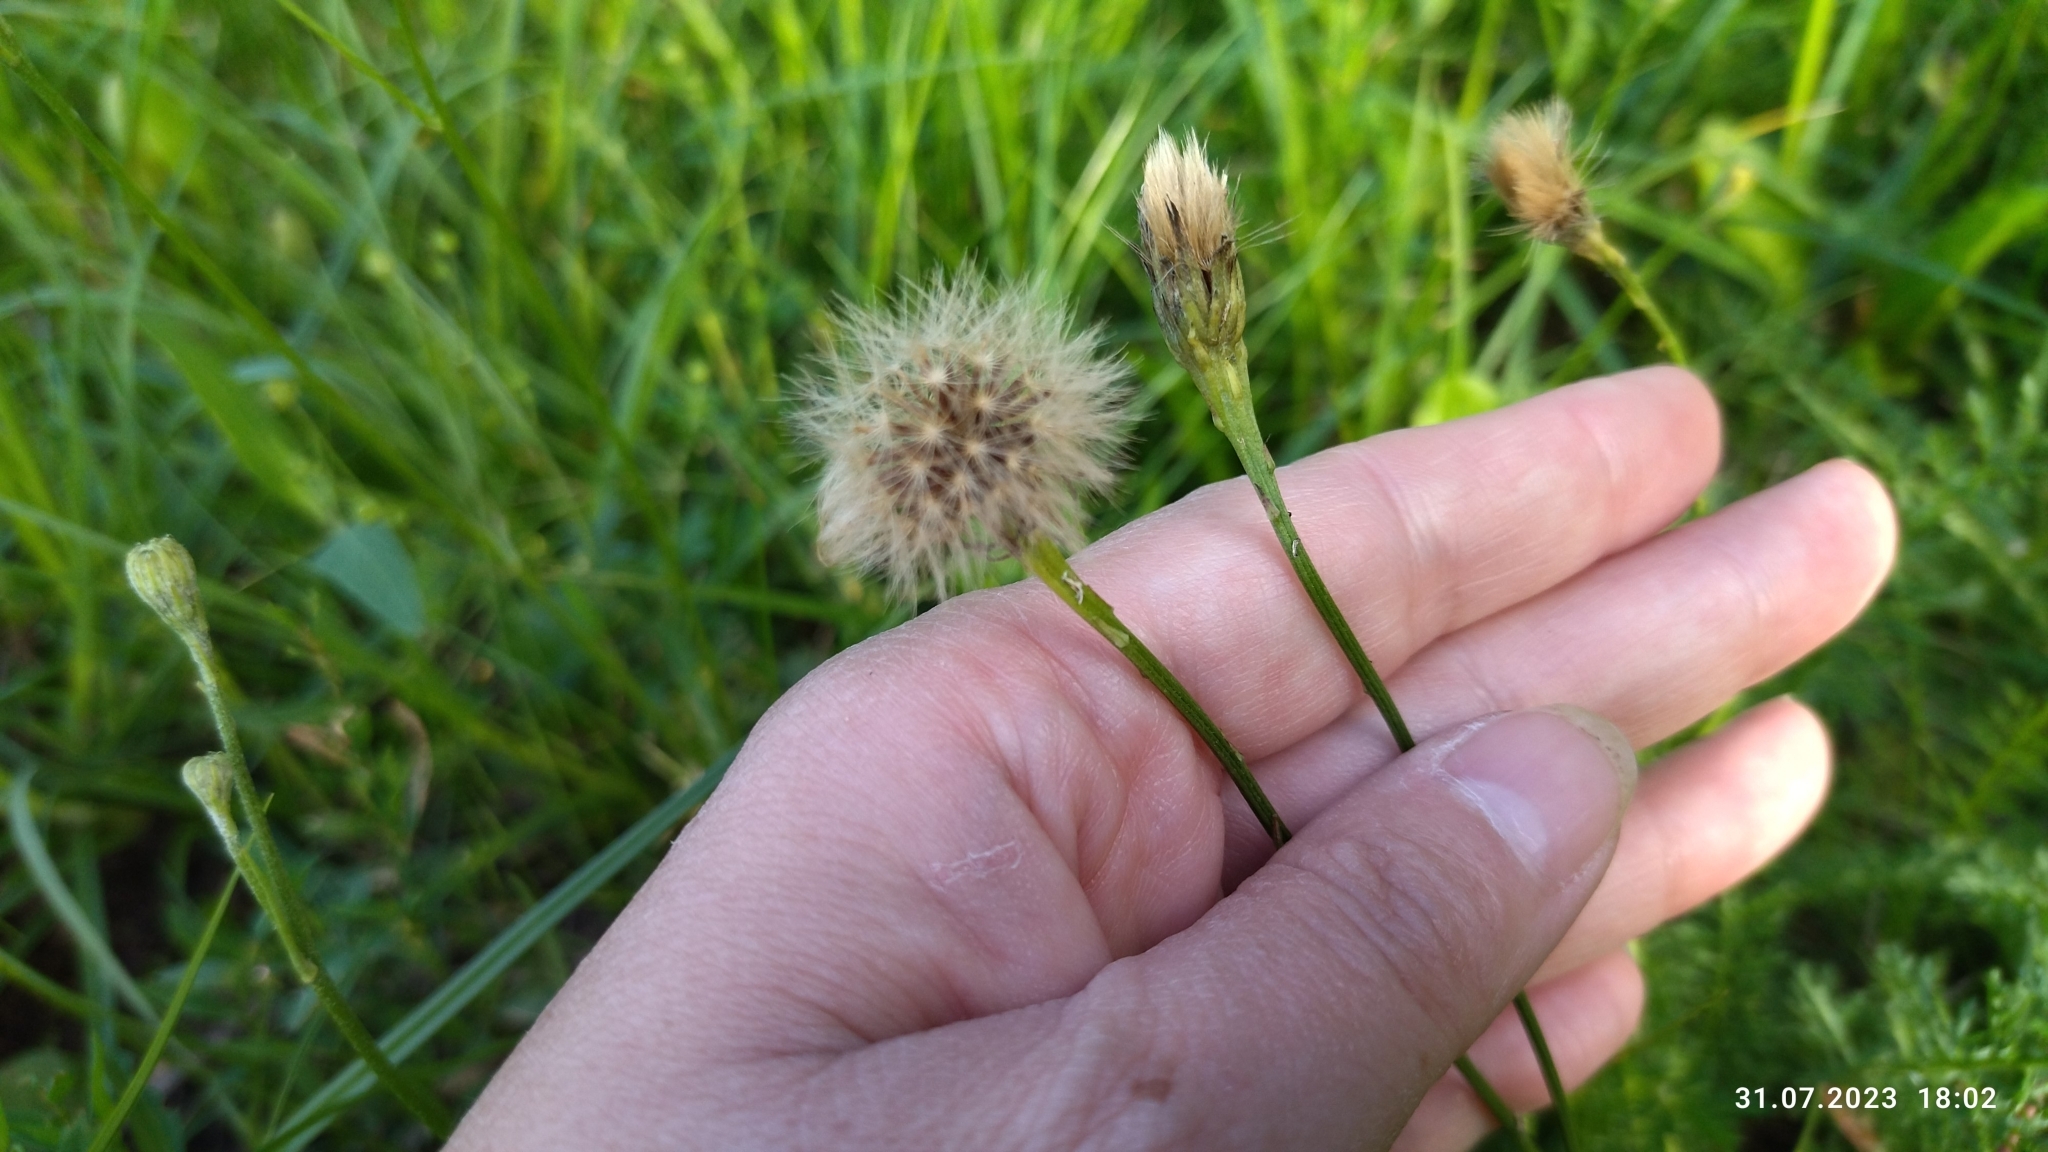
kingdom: Plantae
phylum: Tracheophyta
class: Magnoliopsida
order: Asterales
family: Asteraceae
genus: Scorzoneroides
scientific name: Scorzoneroides autumnalis
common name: Autumn hawkbit
